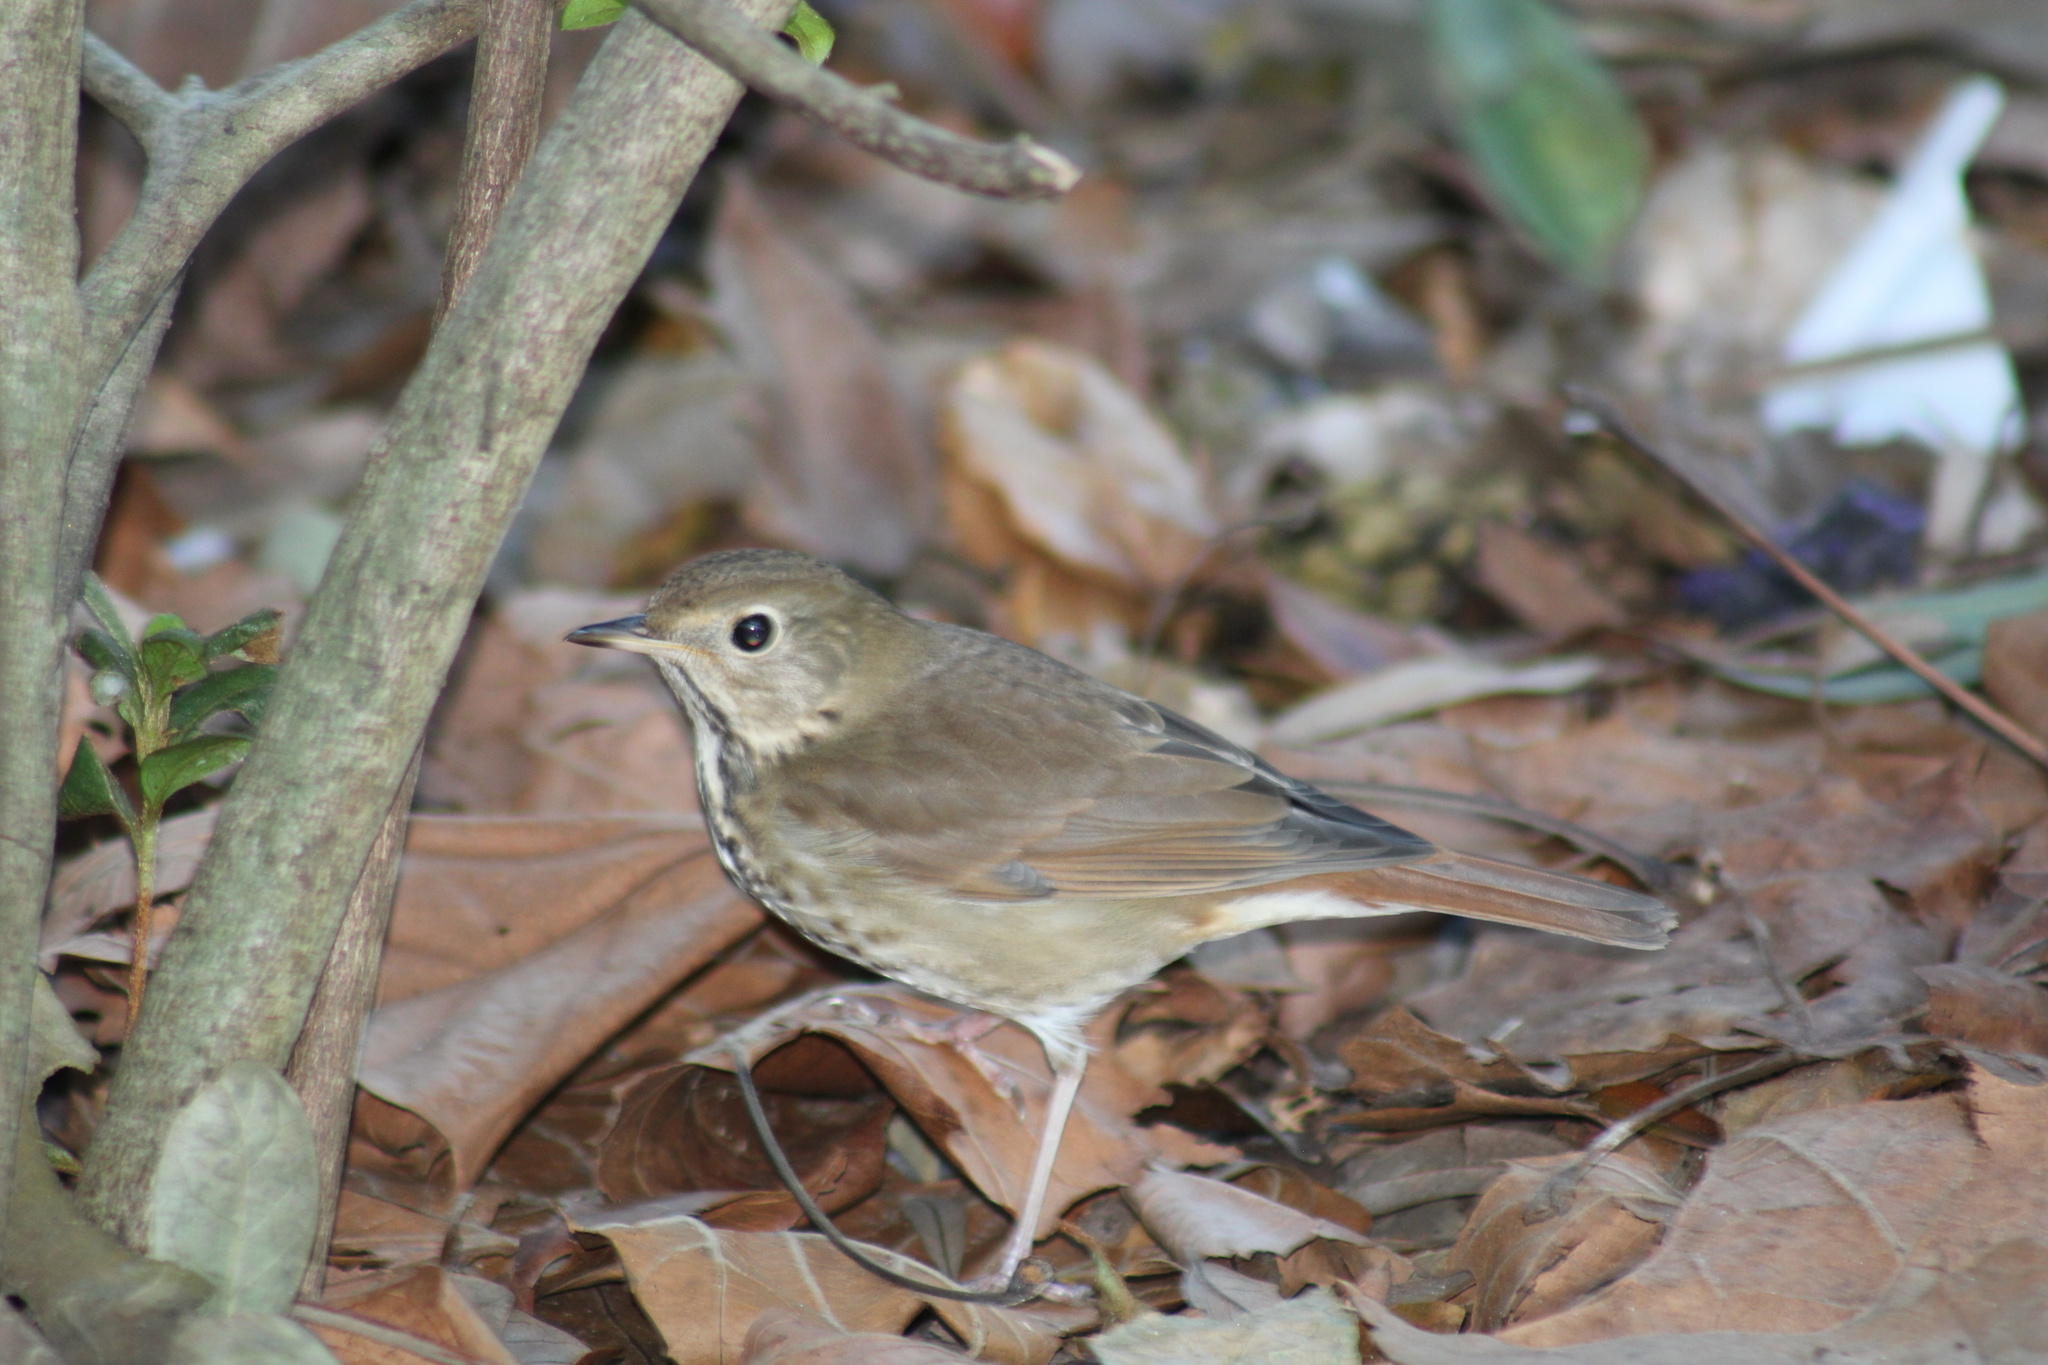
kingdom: Animalia
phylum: Chordata
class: Aves
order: Passeriformes
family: Turdidae
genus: Catharus
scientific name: Catharus guttatus
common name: Hermit thrush
